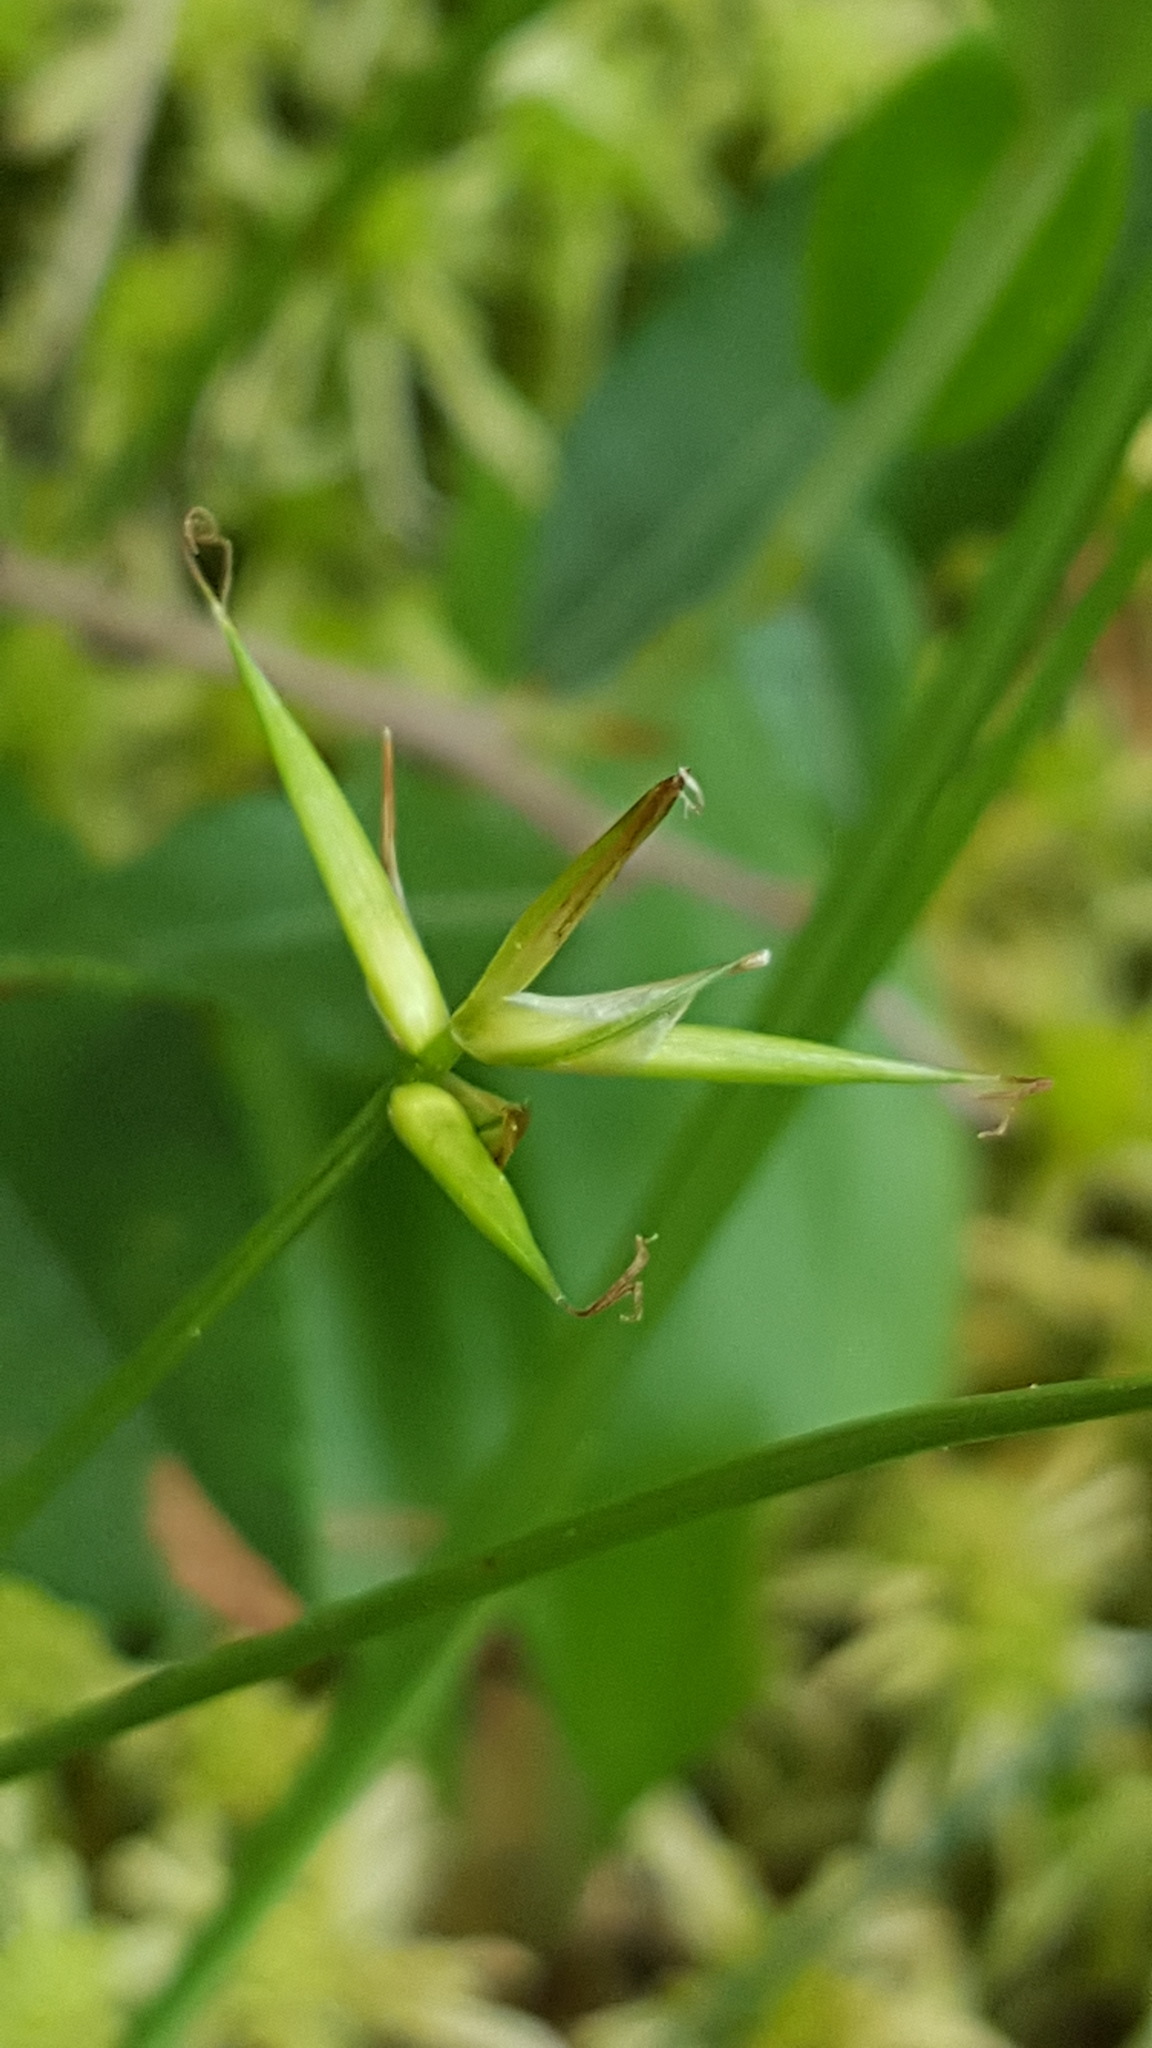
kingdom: Plantae
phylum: Tracheophyta
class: Liliopsida
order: Poales
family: Cyperaceae
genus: Carex
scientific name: Carex pauciflora
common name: Few-flowered sedge
